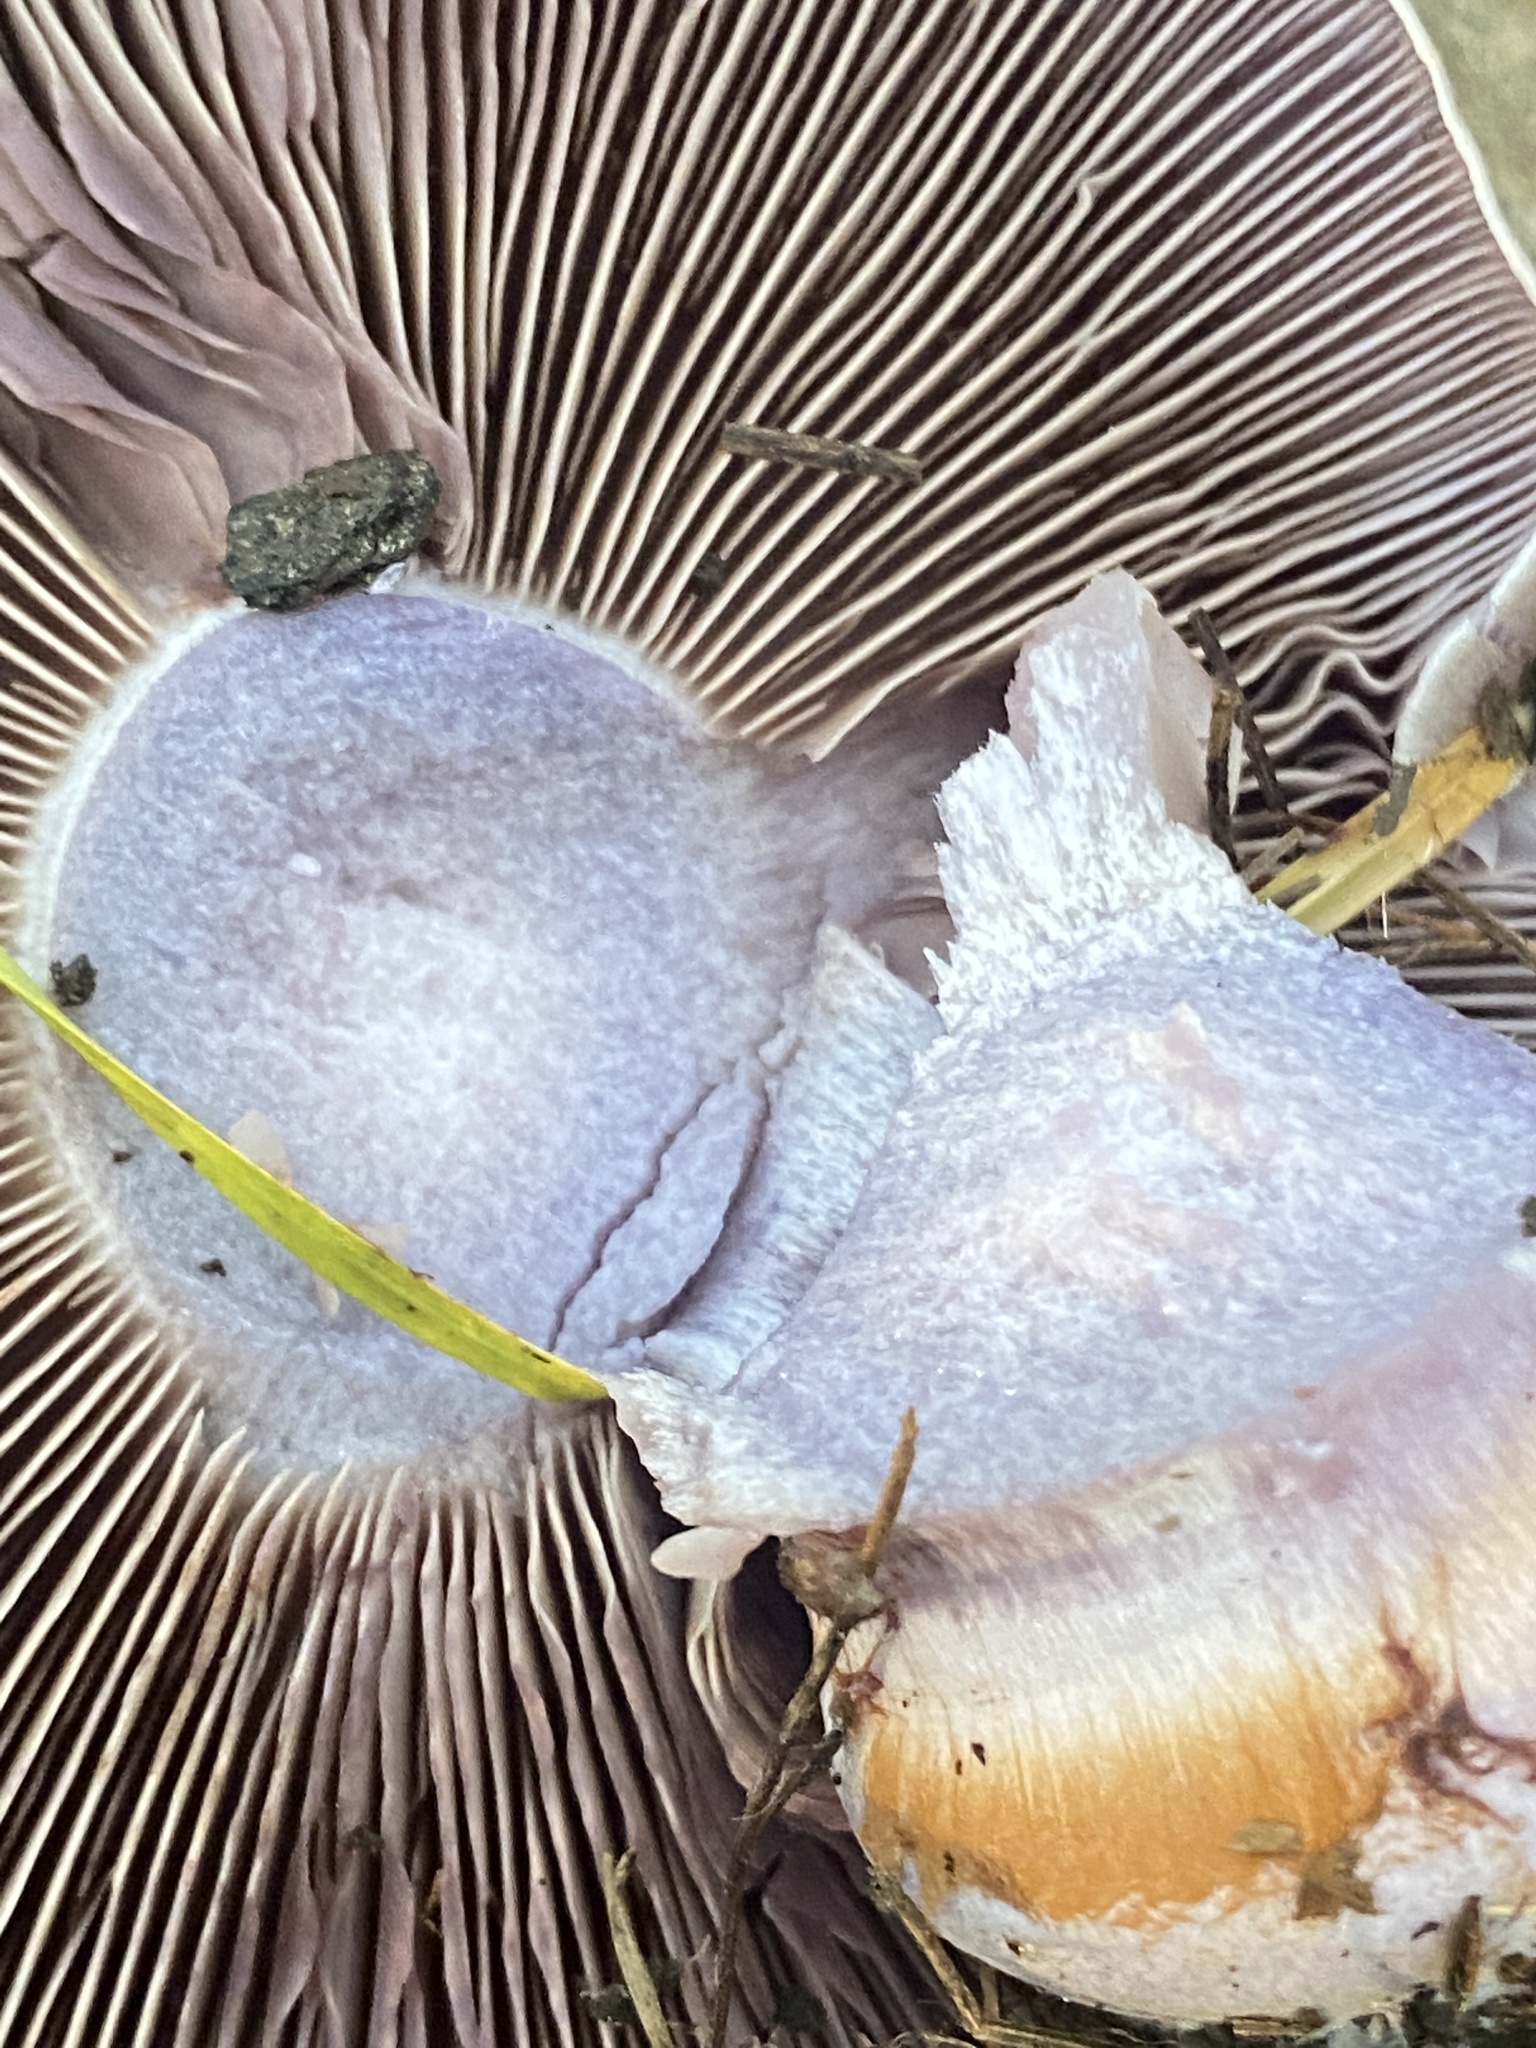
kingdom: Fungi
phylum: Basidiomycota
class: Agaricomycetes
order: Agaricales
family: Cortinariaceae
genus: Cortinarius
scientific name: Cortinarius alboviolaceus
